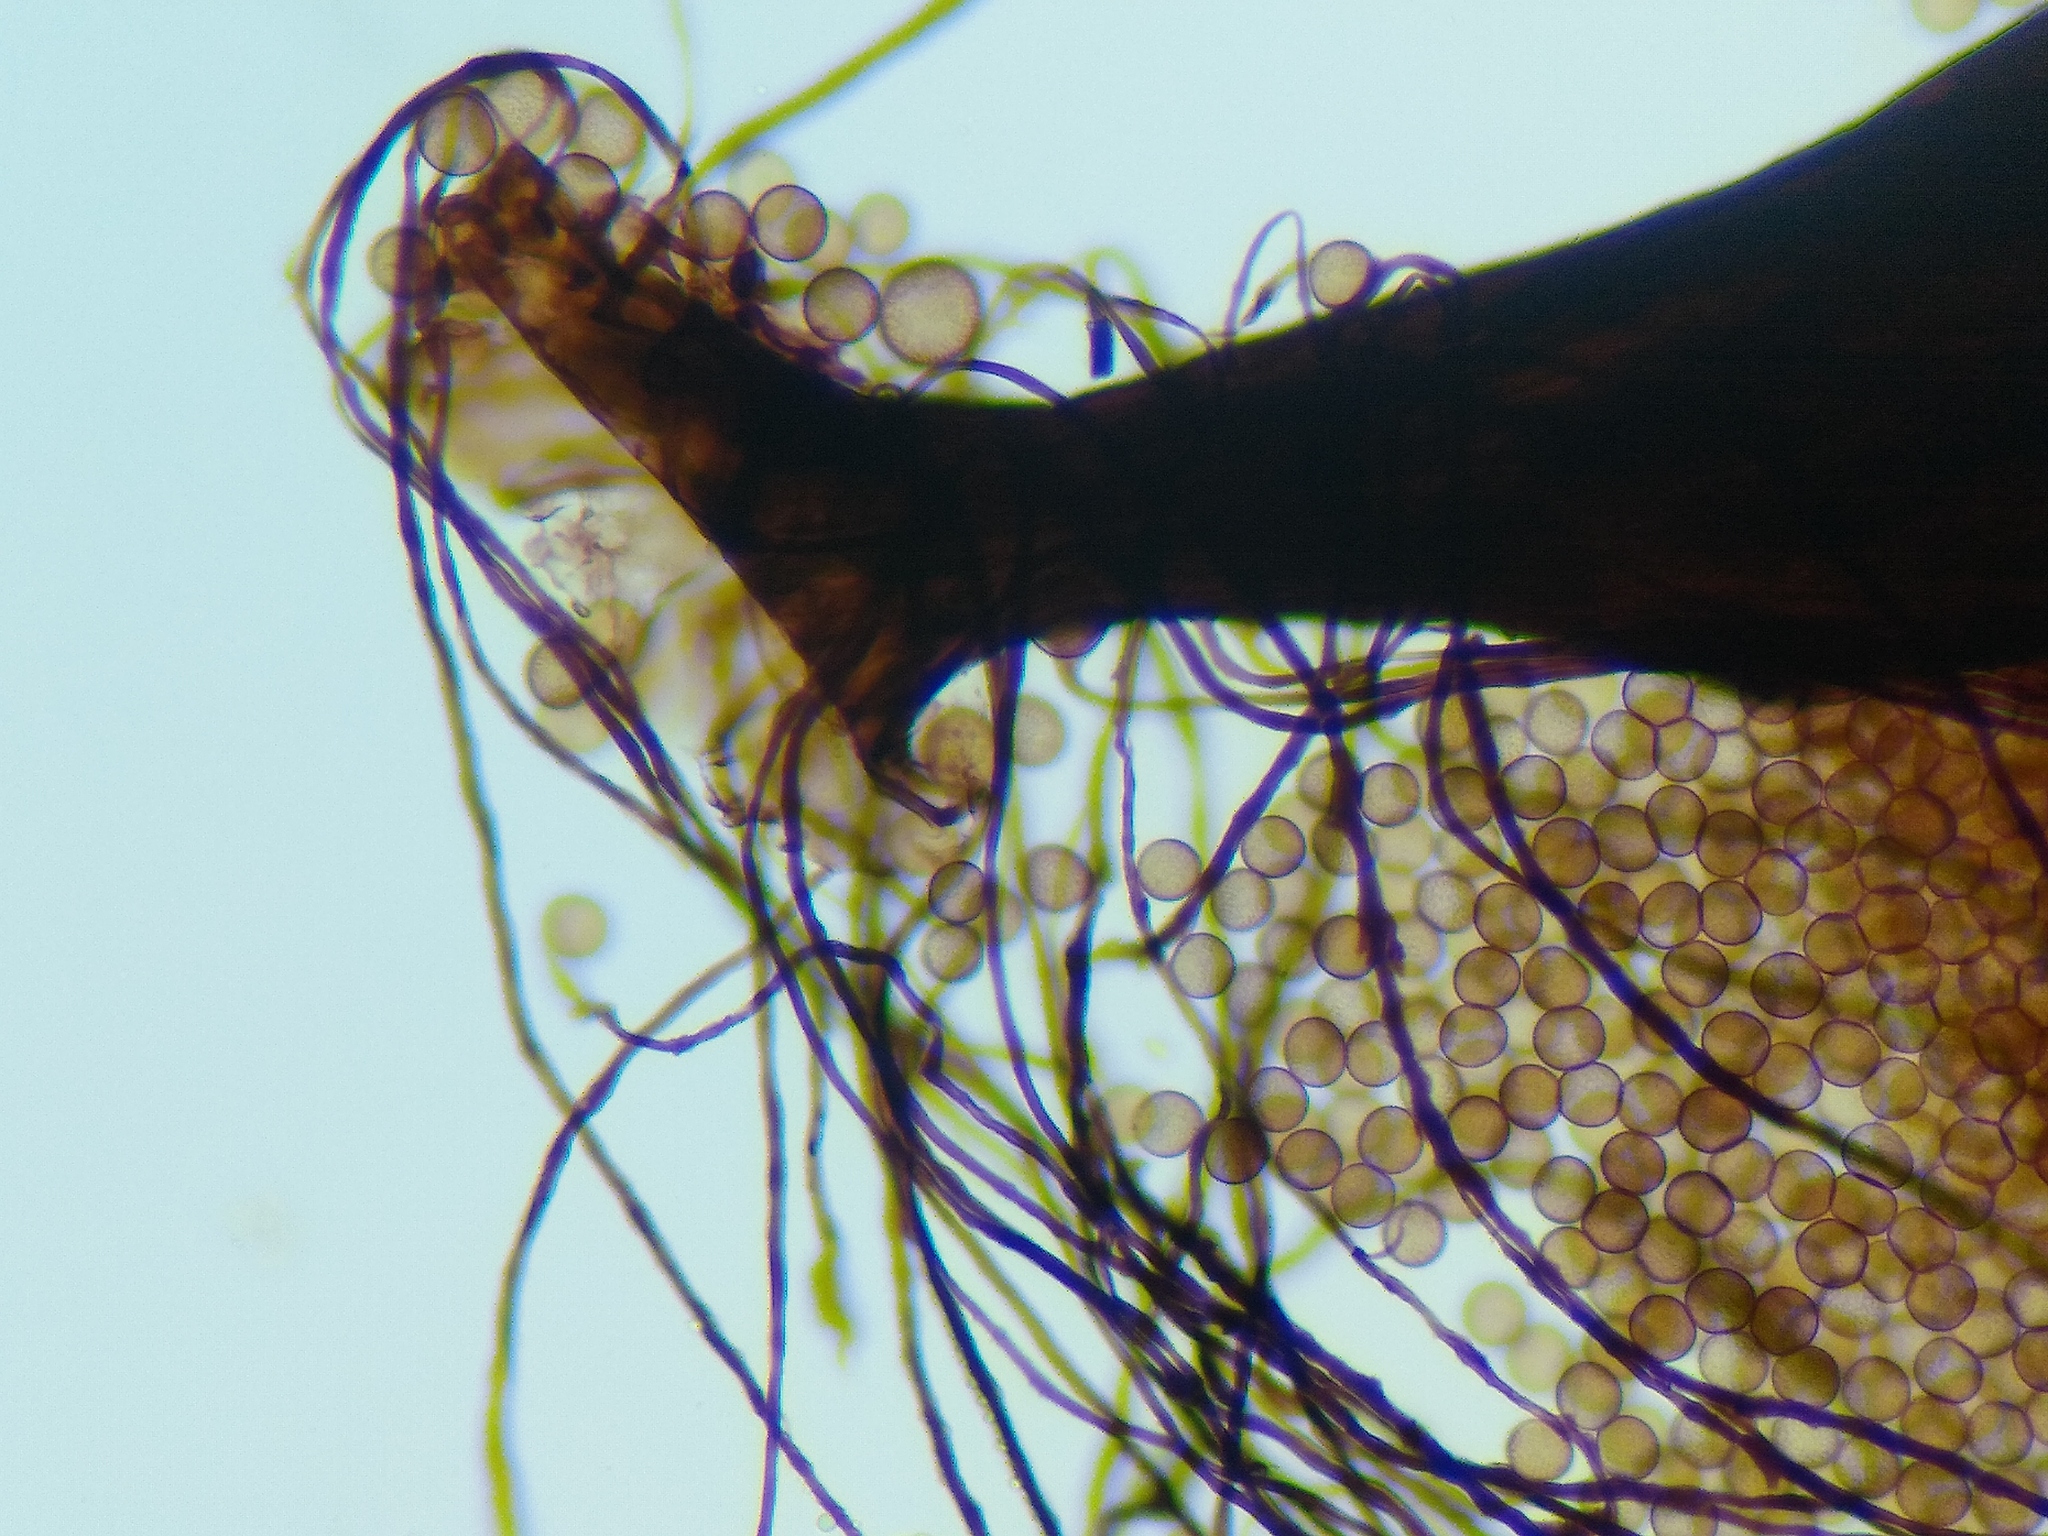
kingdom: Protozoa
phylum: Mycetozoa
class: Myxomycetes
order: Stemonitidales
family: Stemonitidaceae
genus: Enerthenema
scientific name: Enerthenema papillatum
